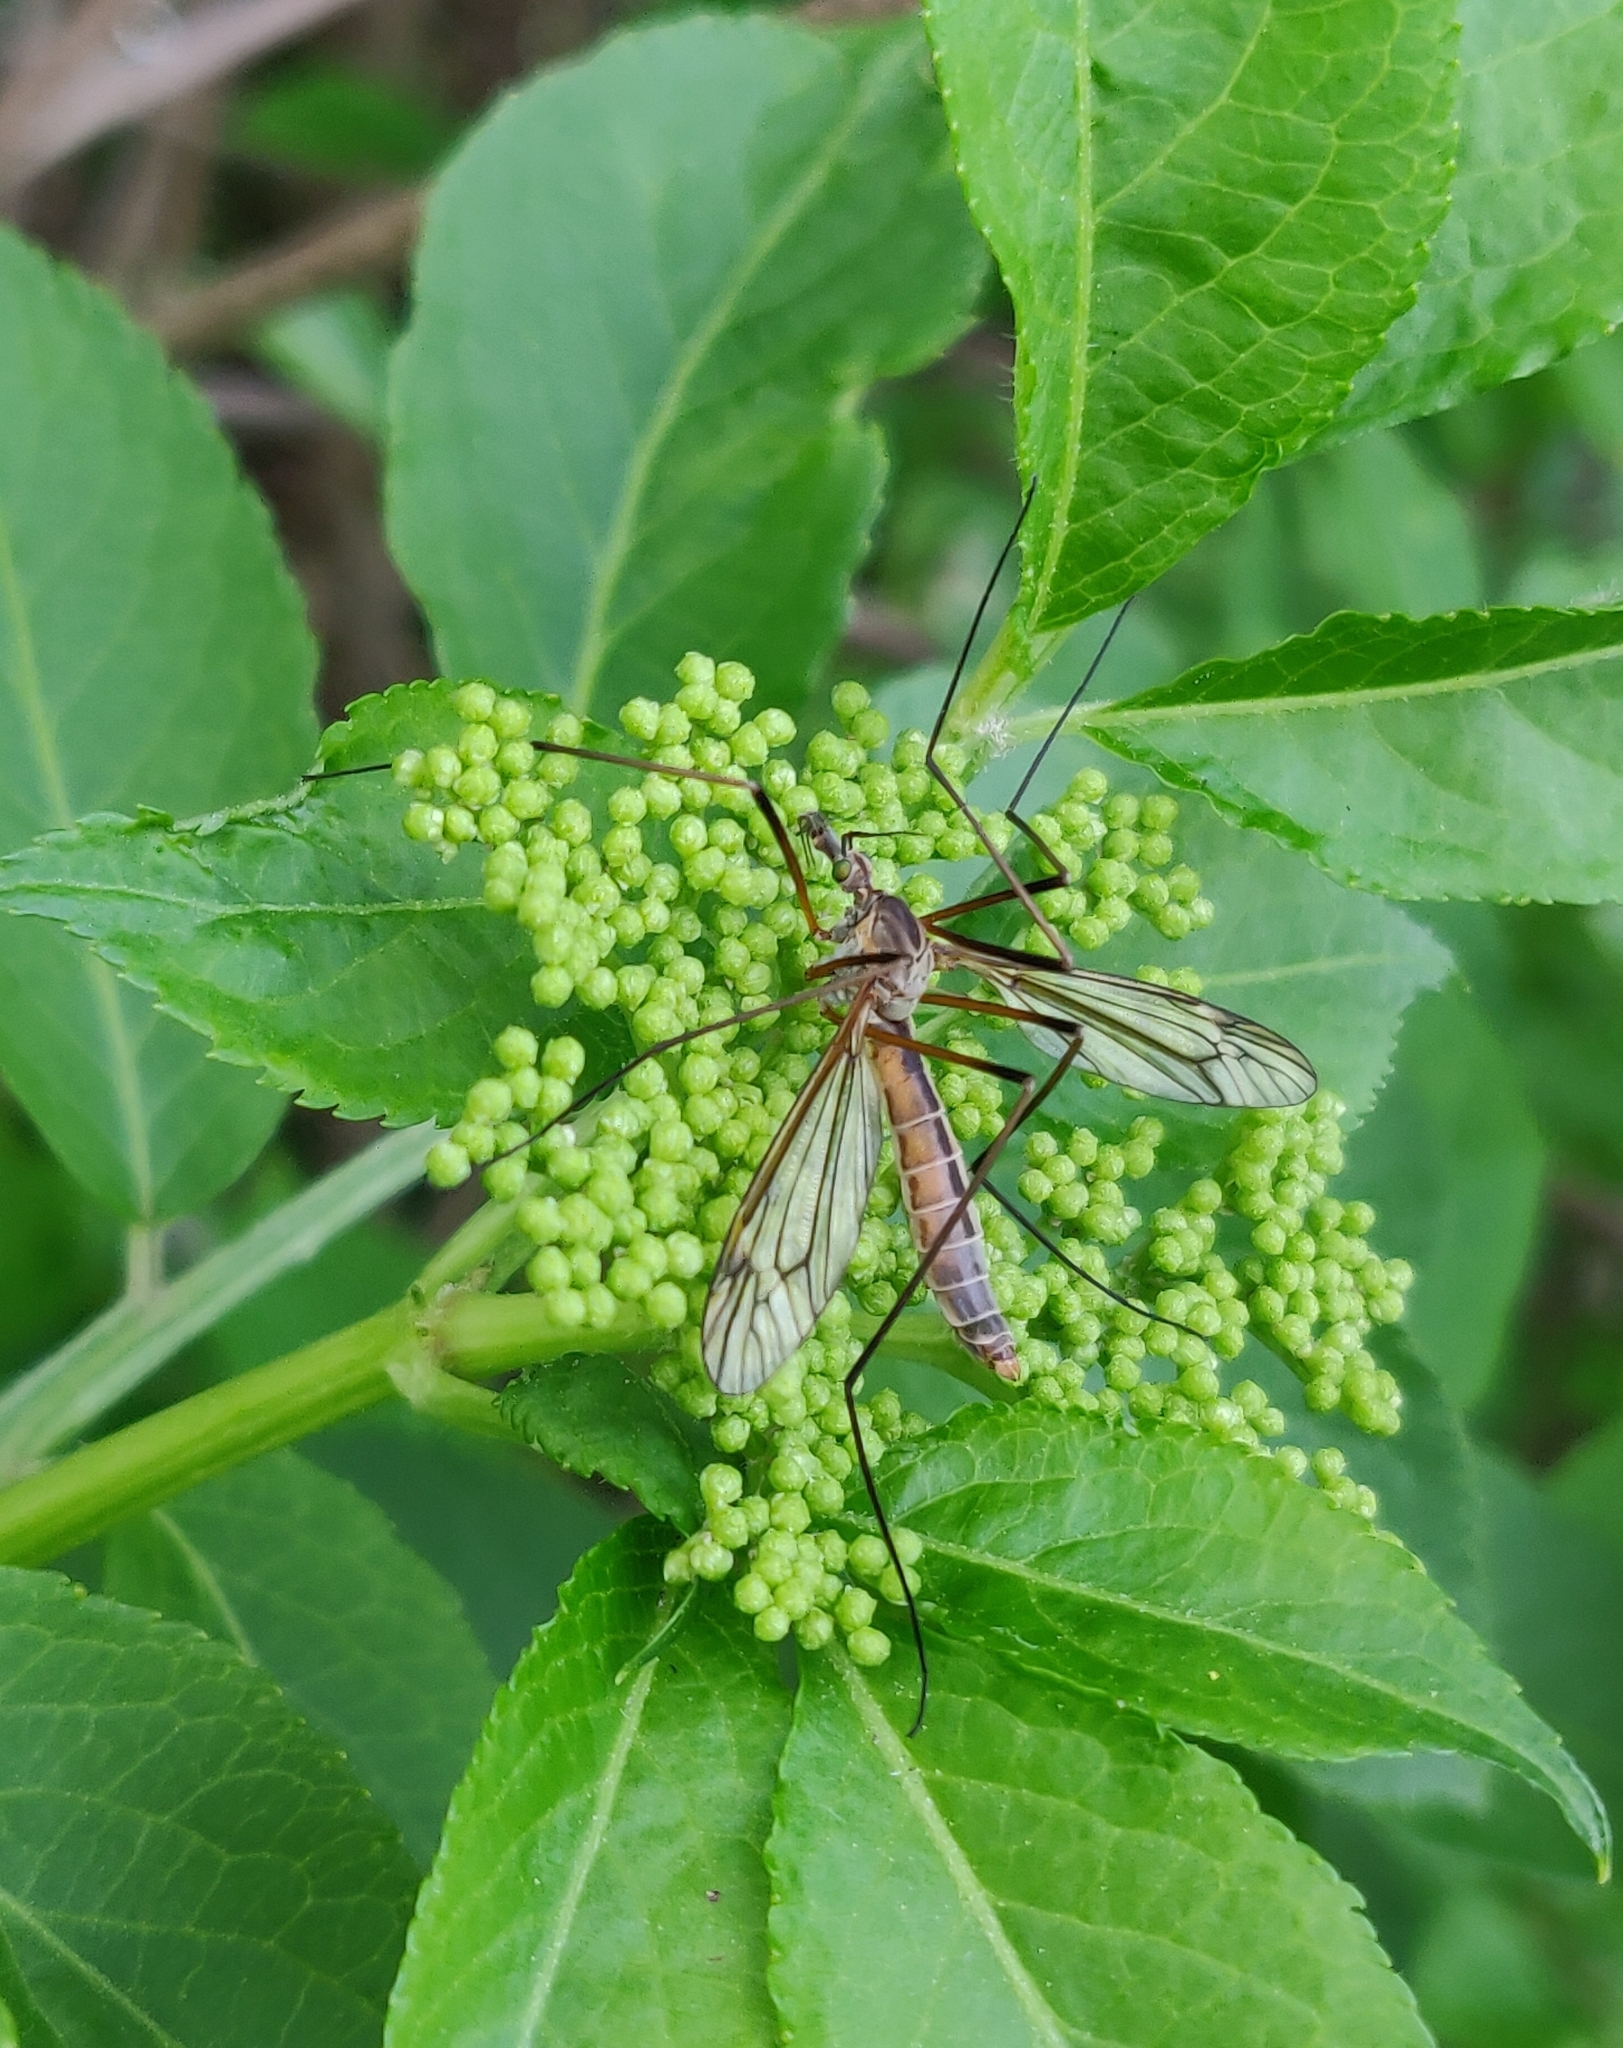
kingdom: Animalia
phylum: Arthropoda
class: Insecta
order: Diptera
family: Tipulidae
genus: Tipula
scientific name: Tipula vernalis
